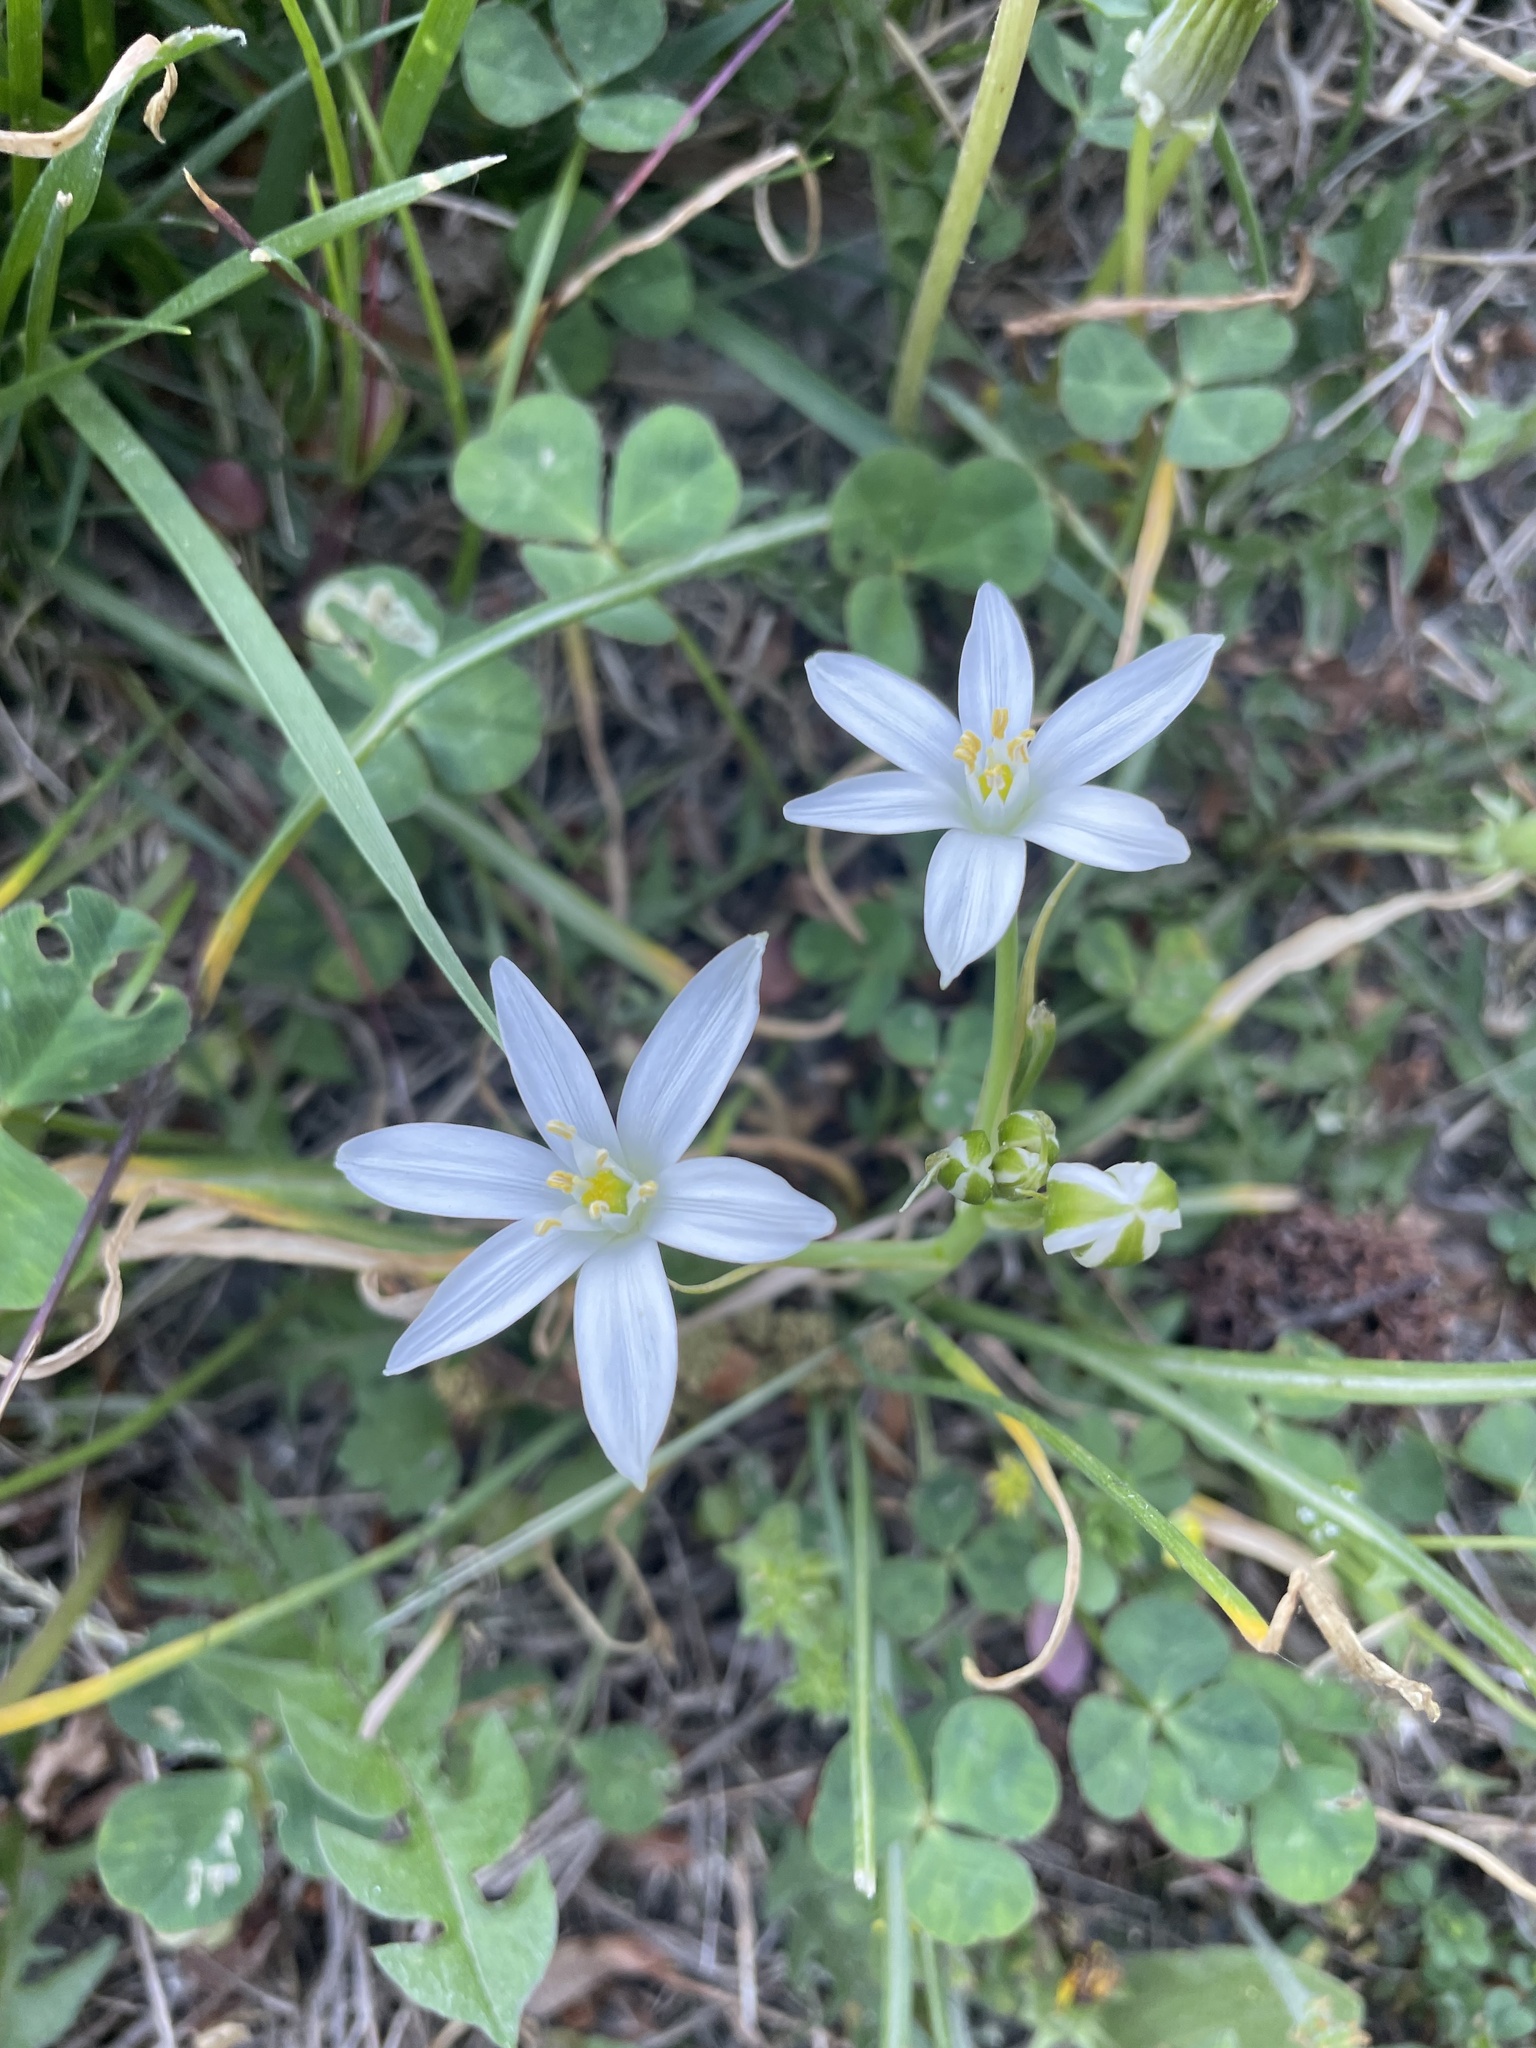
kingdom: Plantae
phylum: Tracheophyta
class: Liliopsida
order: Asparagales
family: Asparagaceae
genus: Ornithogalum
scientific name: Ornithogalum umbellatum
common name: Garden star-of-bethlehem
